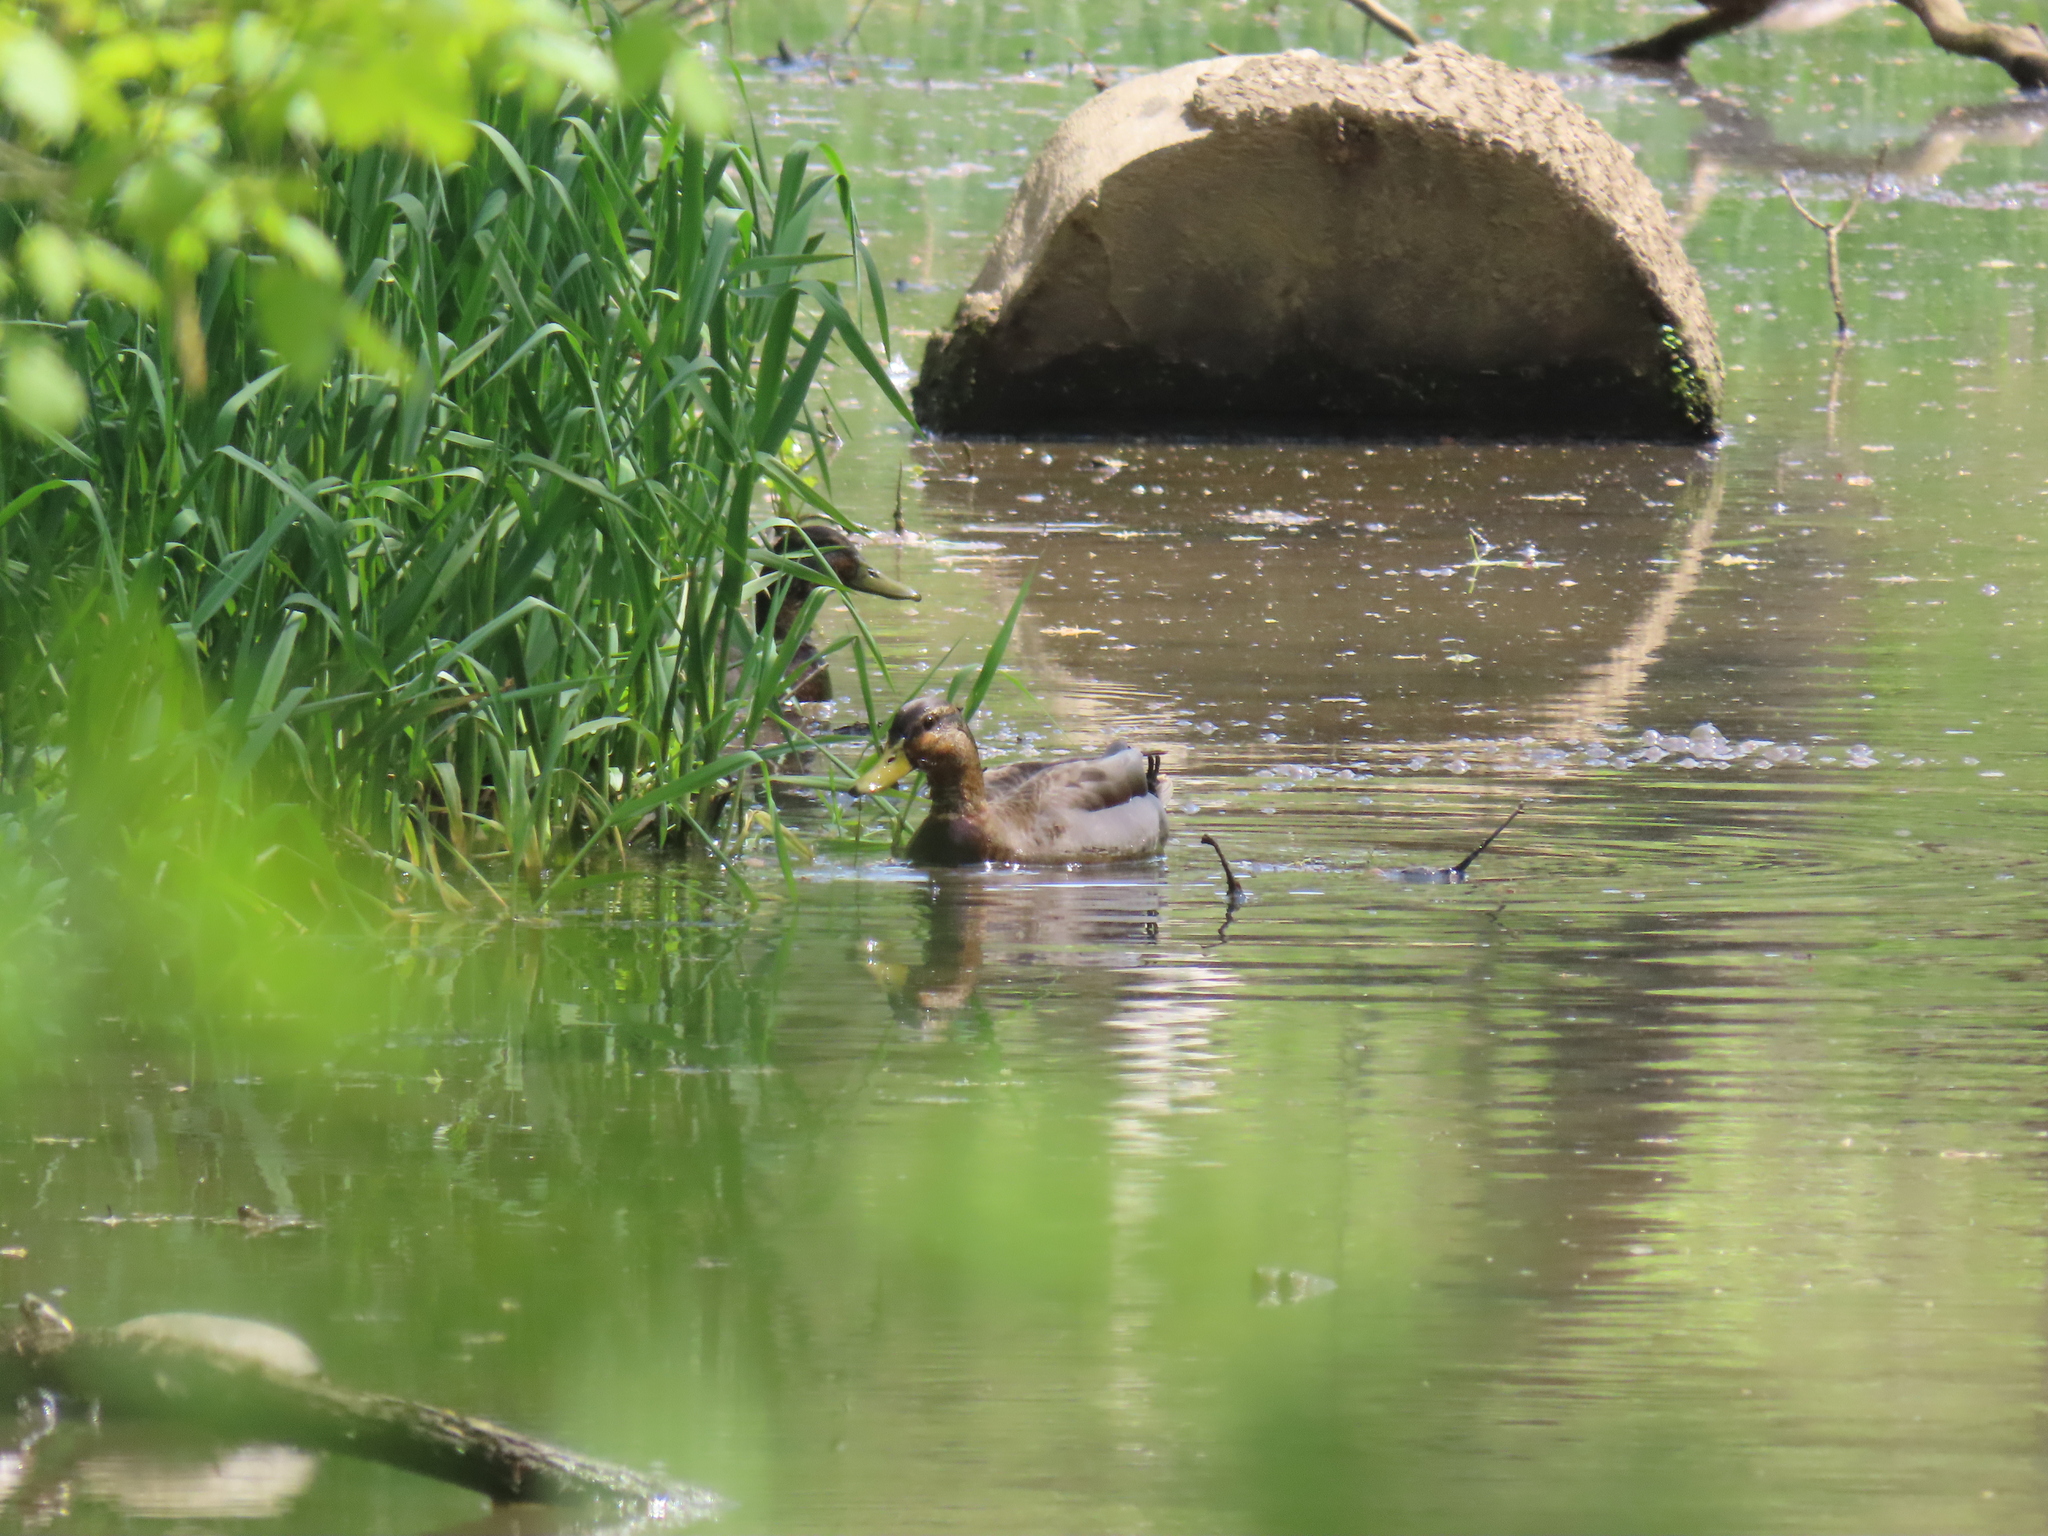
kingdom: Animalia
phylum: Chordata
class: Aves
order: Anseriformes
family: Anatidae
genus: Anas
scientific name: Anas platyrhynchos
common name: Mallard
